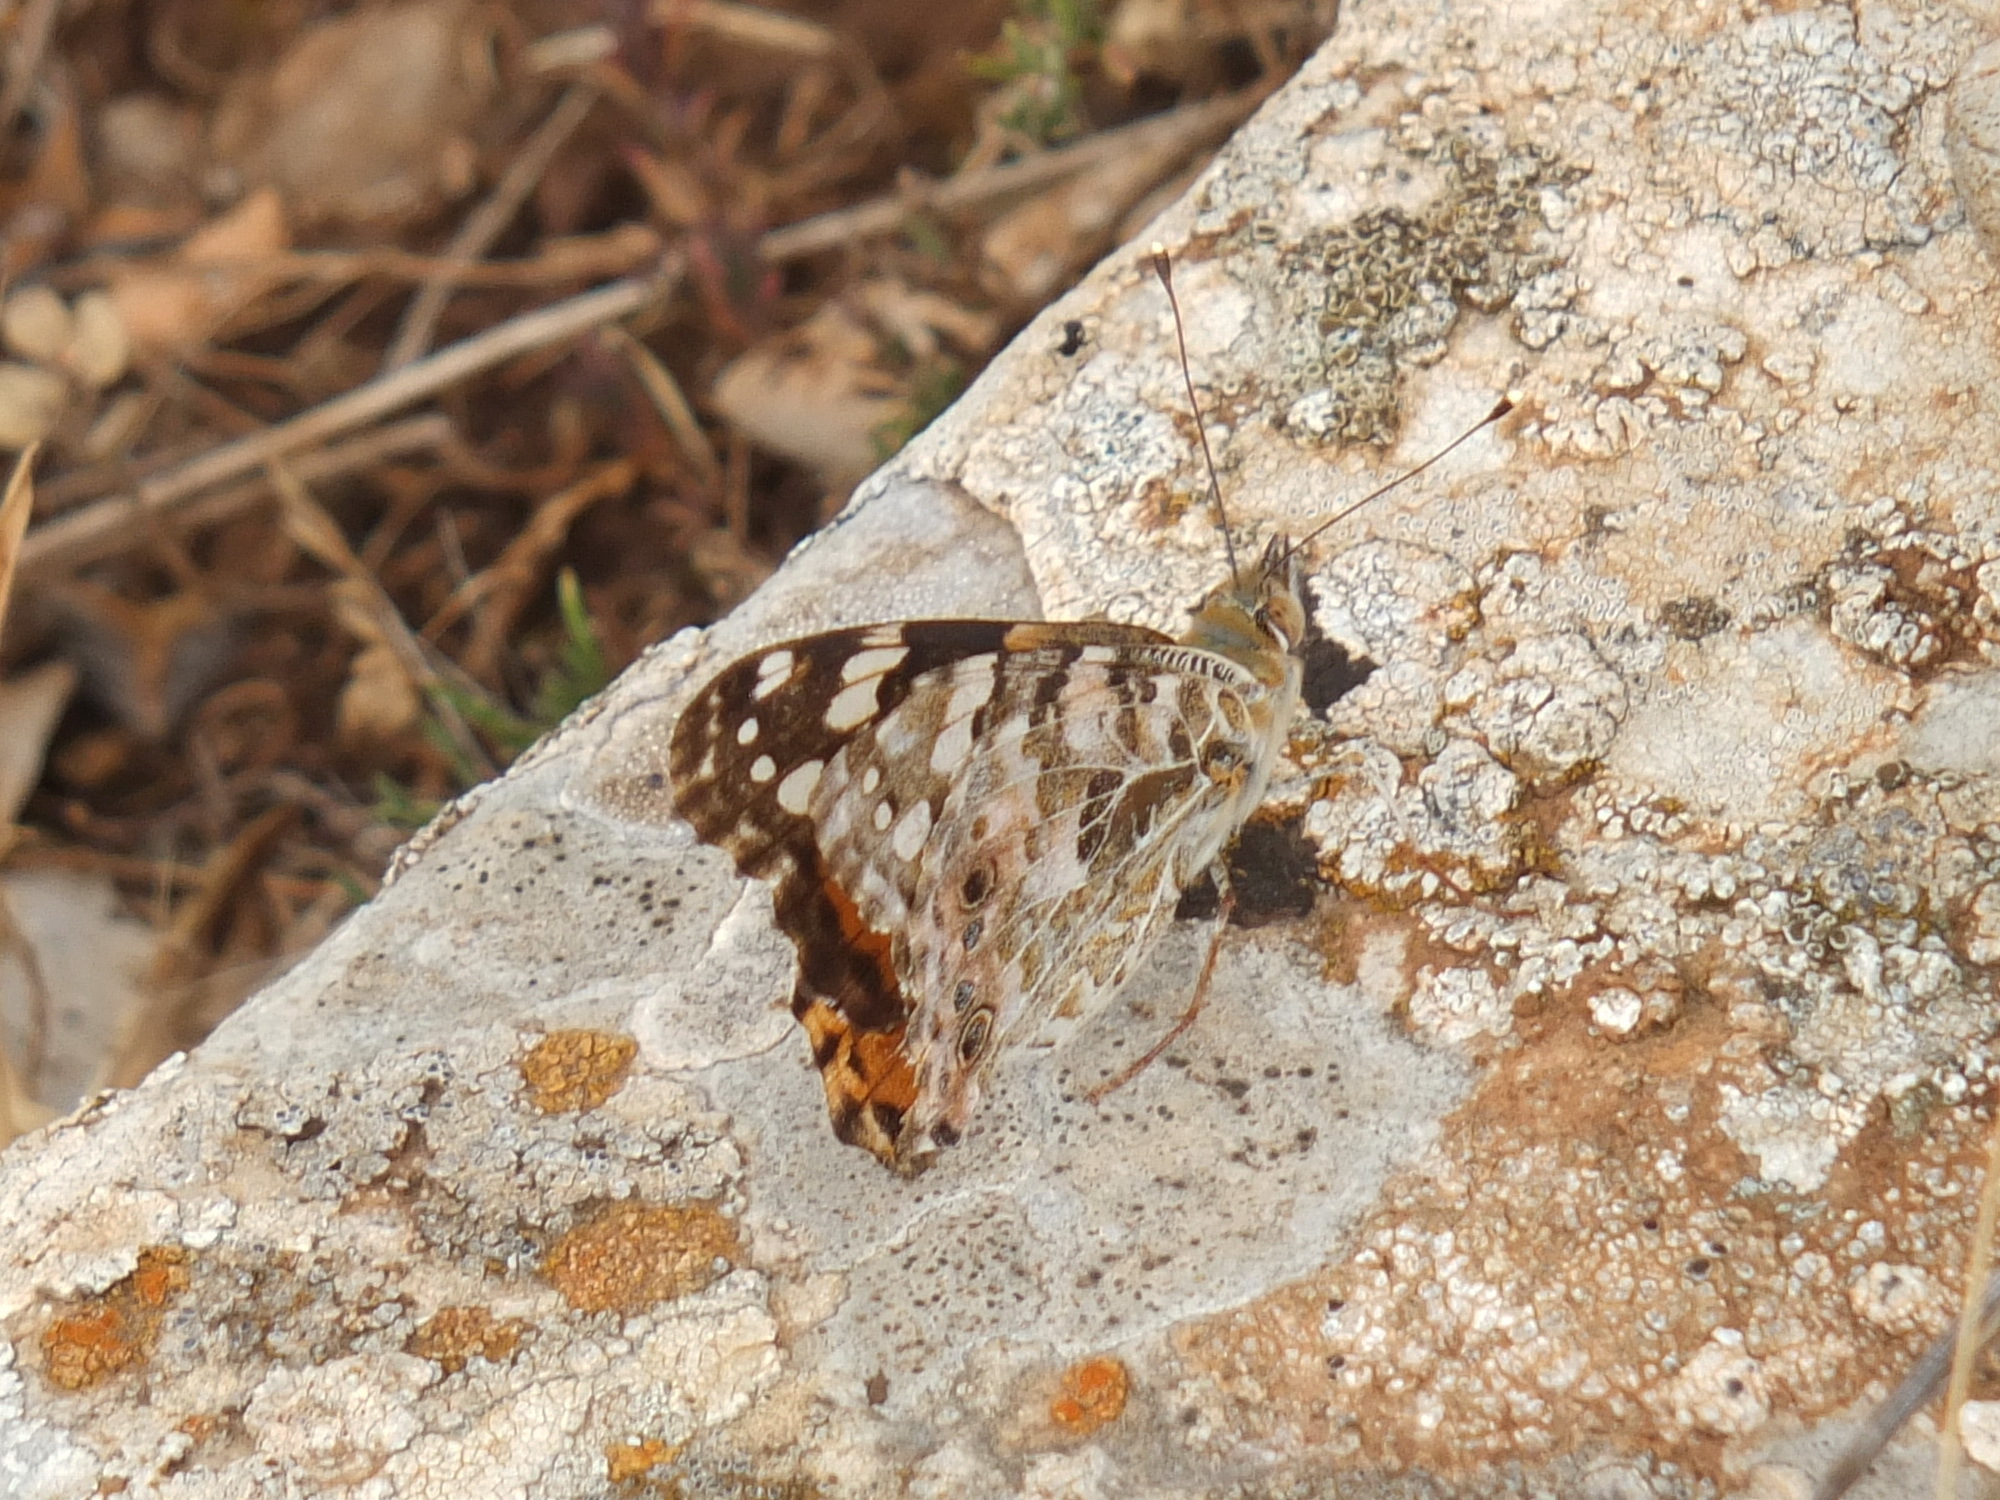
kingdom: Animalia
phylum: Arthropoda
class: Insecta
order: Lepidoptera
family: Nymphalidae
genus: Vanessa
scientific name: Vanessa cardui
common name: Painted lady
